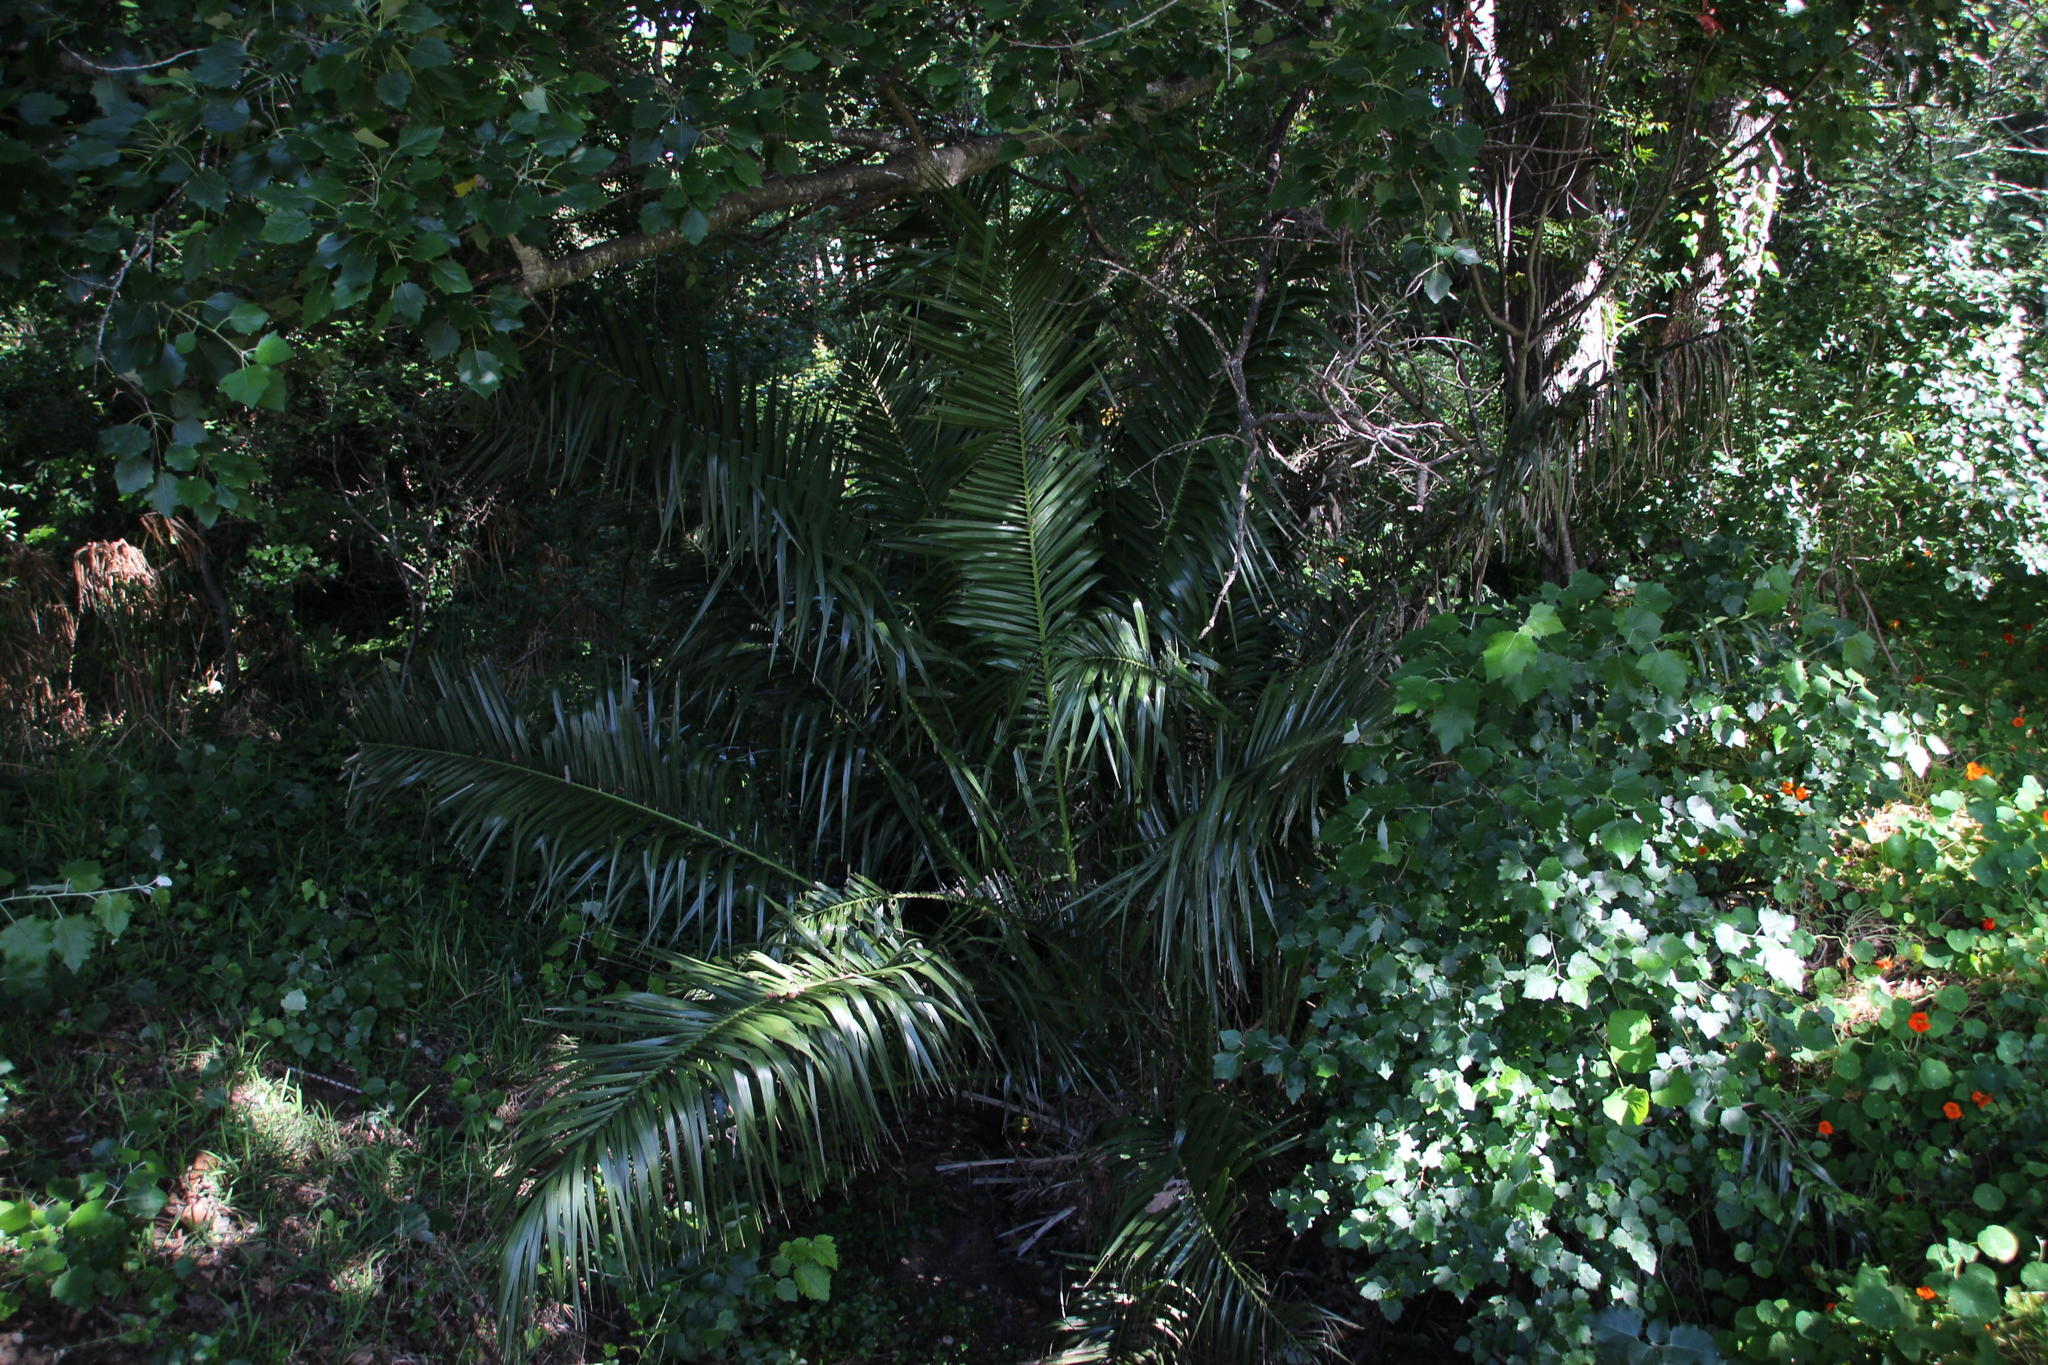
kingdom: Plantae
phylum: Tracheophyta
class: Liliopsida
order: Arecales
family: Arecaceae
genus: Phoenix
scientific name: Phoenix canariensis
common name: Canary island date palm
